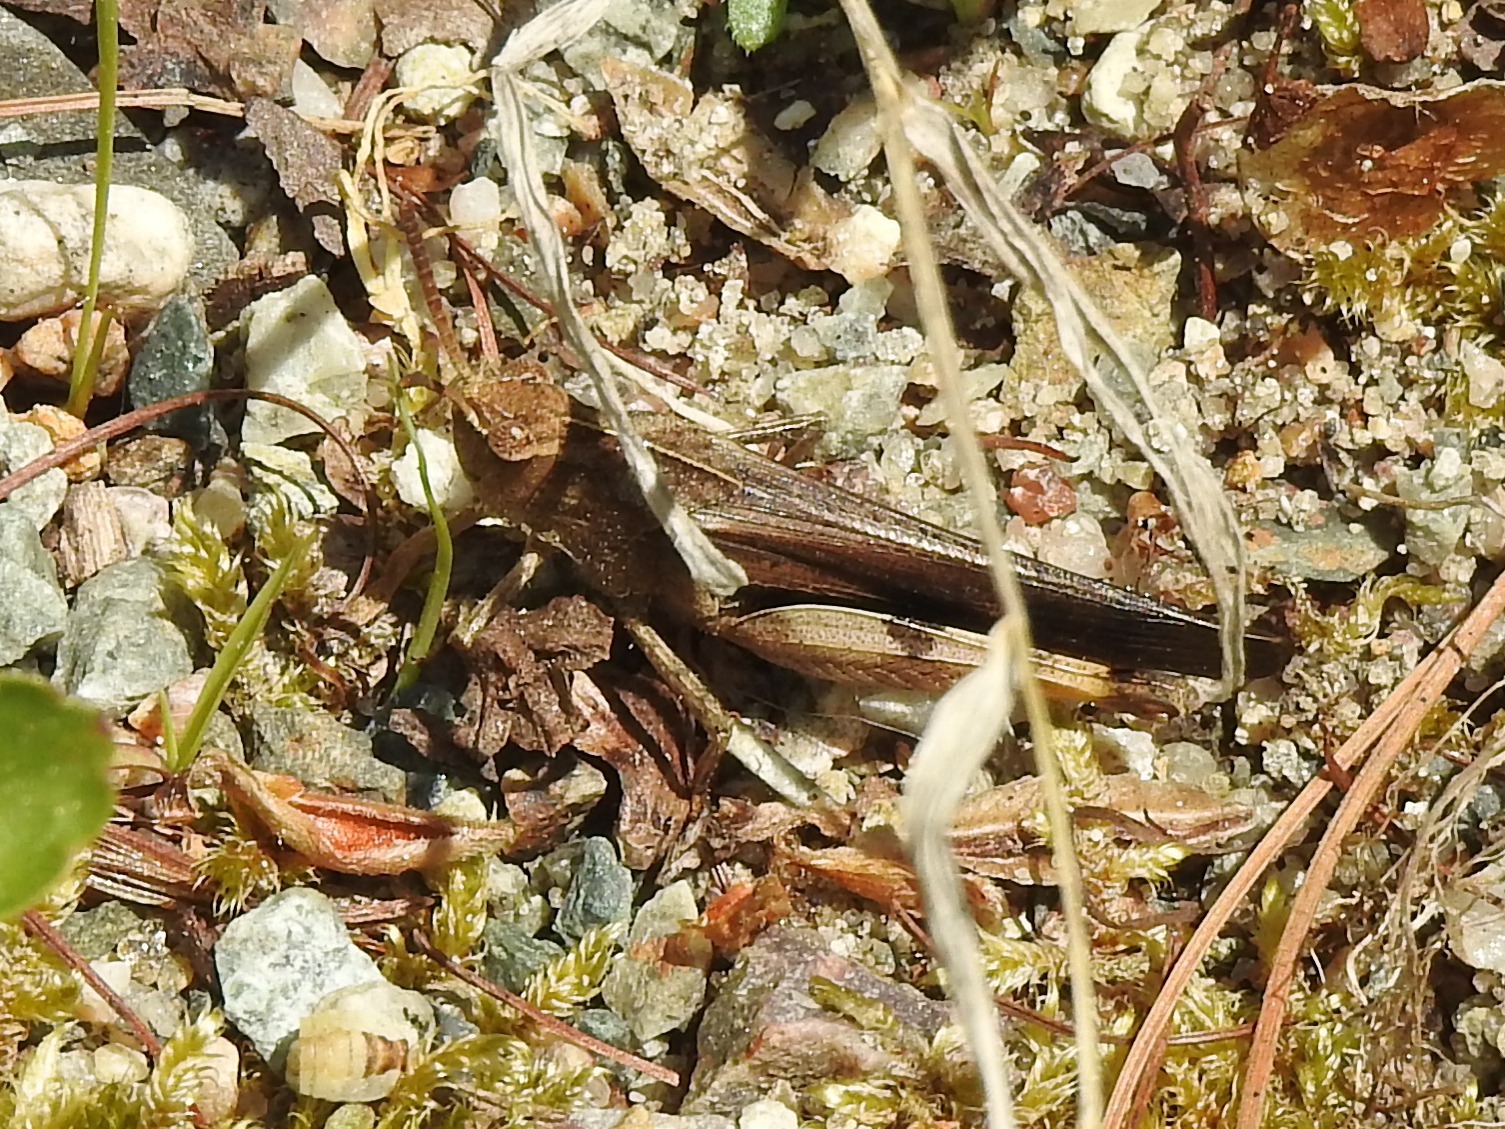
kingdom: Animalia
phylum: Arthropoda
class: Insecta
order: Orthoptera
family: Acrididae
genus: Chortophaga
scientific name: Chortophaga viridifasciata
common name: Green-striped grasshopper
